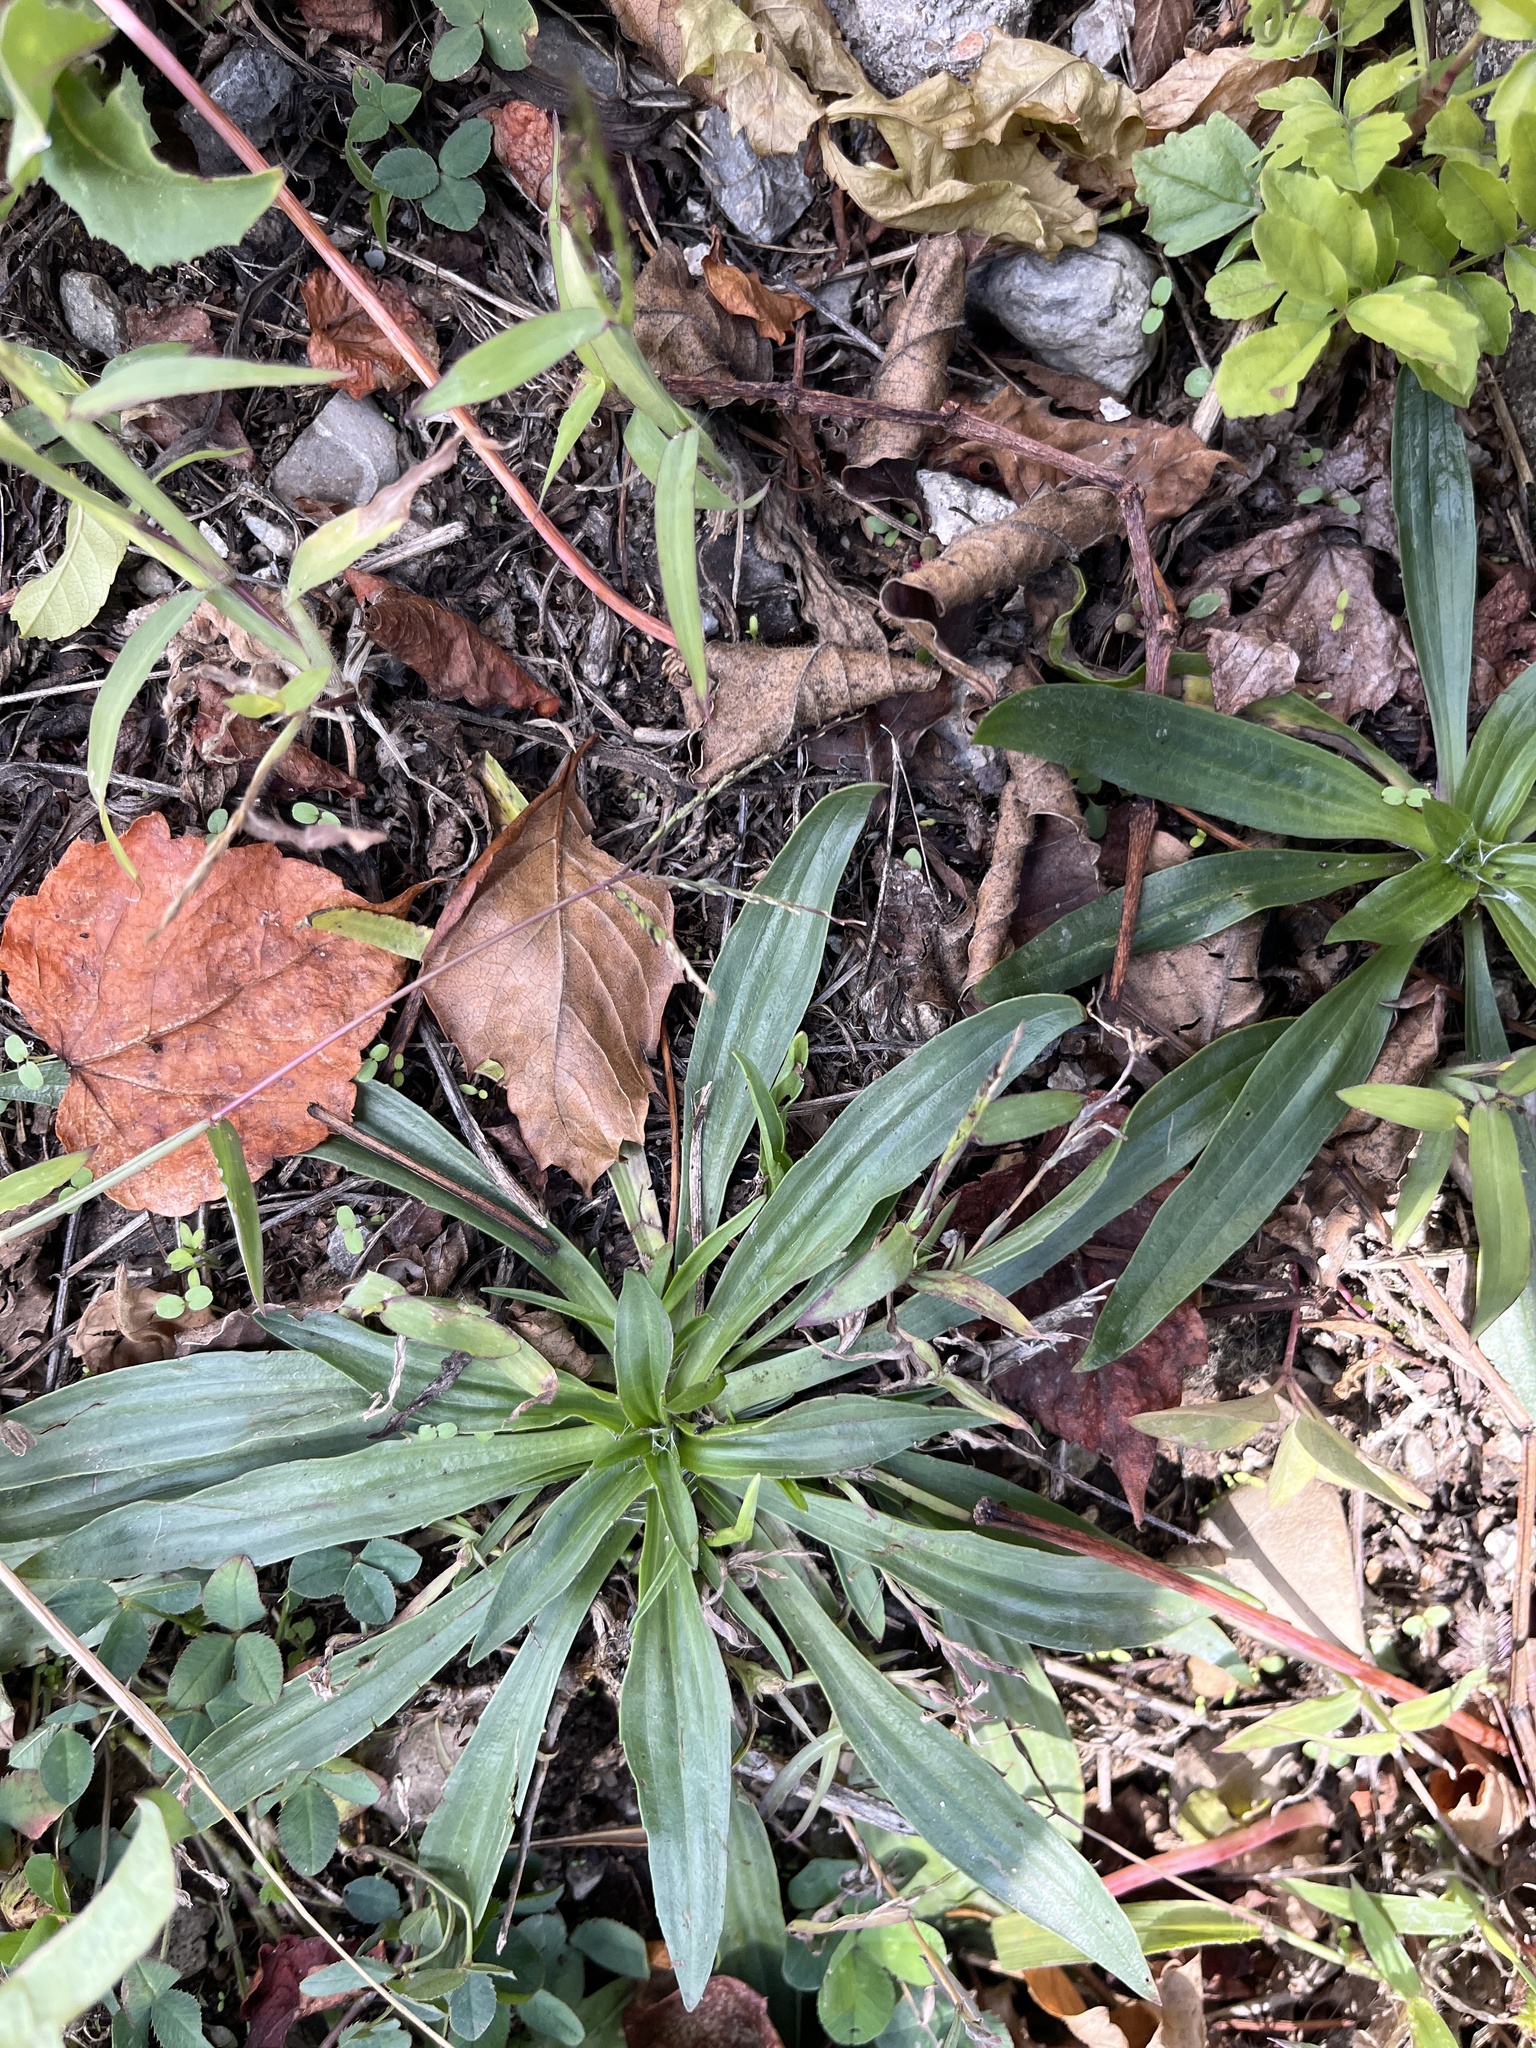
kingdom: Plantae
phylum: Tracheophyta
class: Magnoliopsida
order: Lamiales
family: Plantaginaceae
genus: Plantago
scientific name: Plantago lanceolata
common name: Ribwort plantain
